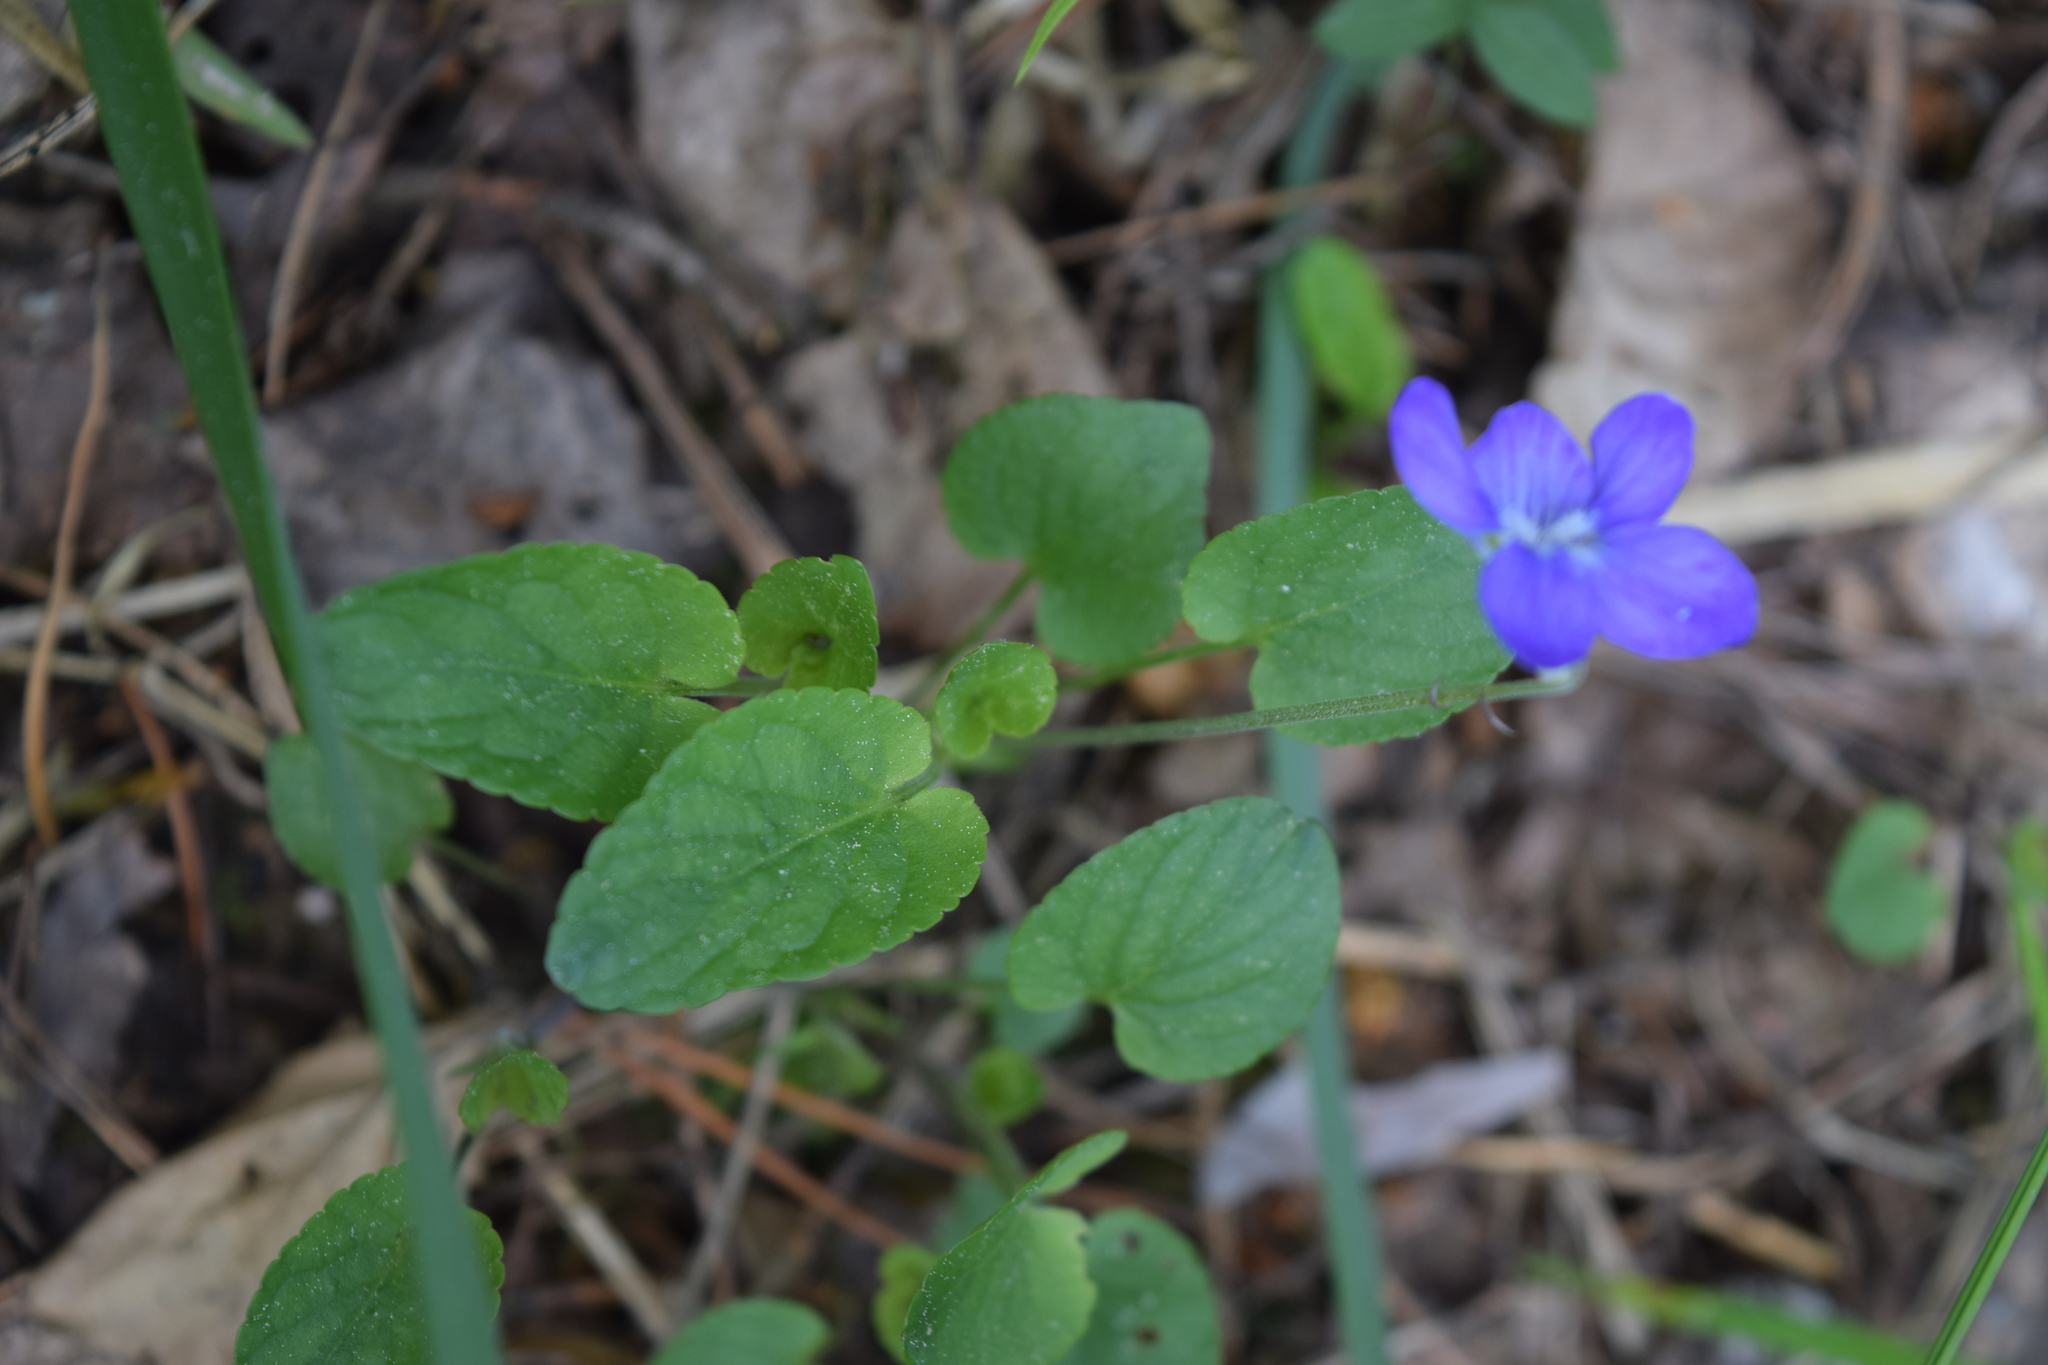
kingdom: Plantae
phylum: Tracheophyta
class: Magnoliopsida
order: Malpighiales
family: Violaceae
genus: Viola
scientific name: Viola canina
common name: Heath dog-violet
